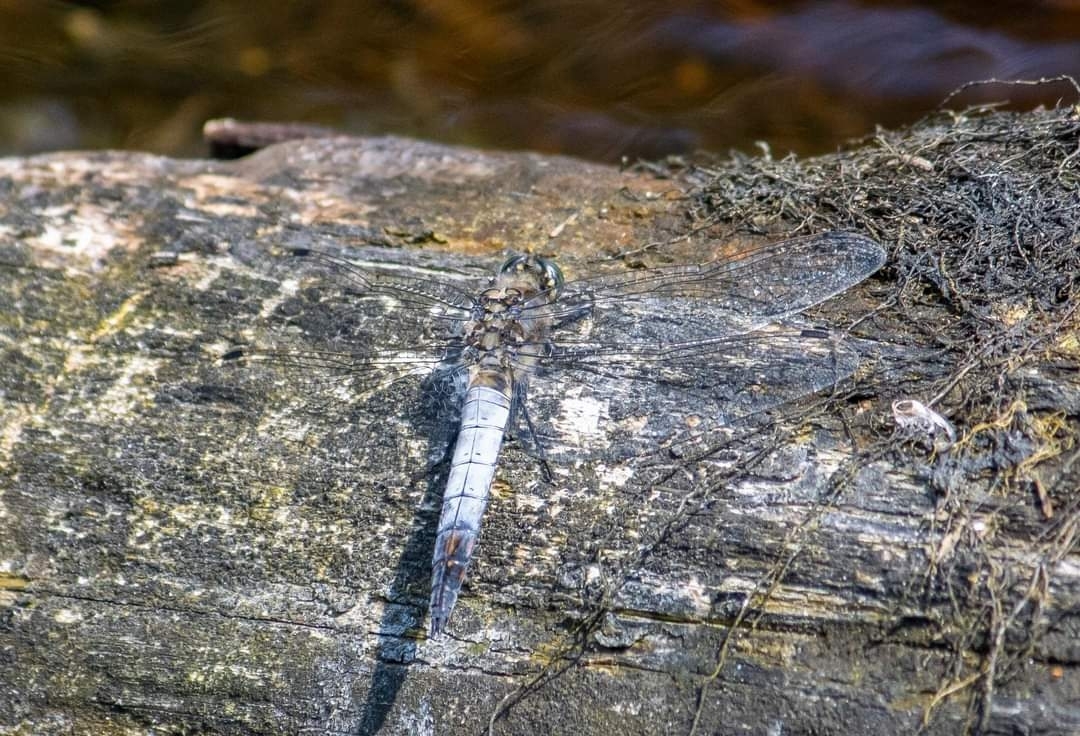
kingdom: Animalia
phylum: Arthropoda
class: Insecta
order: Odonata
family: Libellulidae
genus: Orthetrum
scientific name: Orthetrum cancellatum
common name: Black-tailed skimmer
